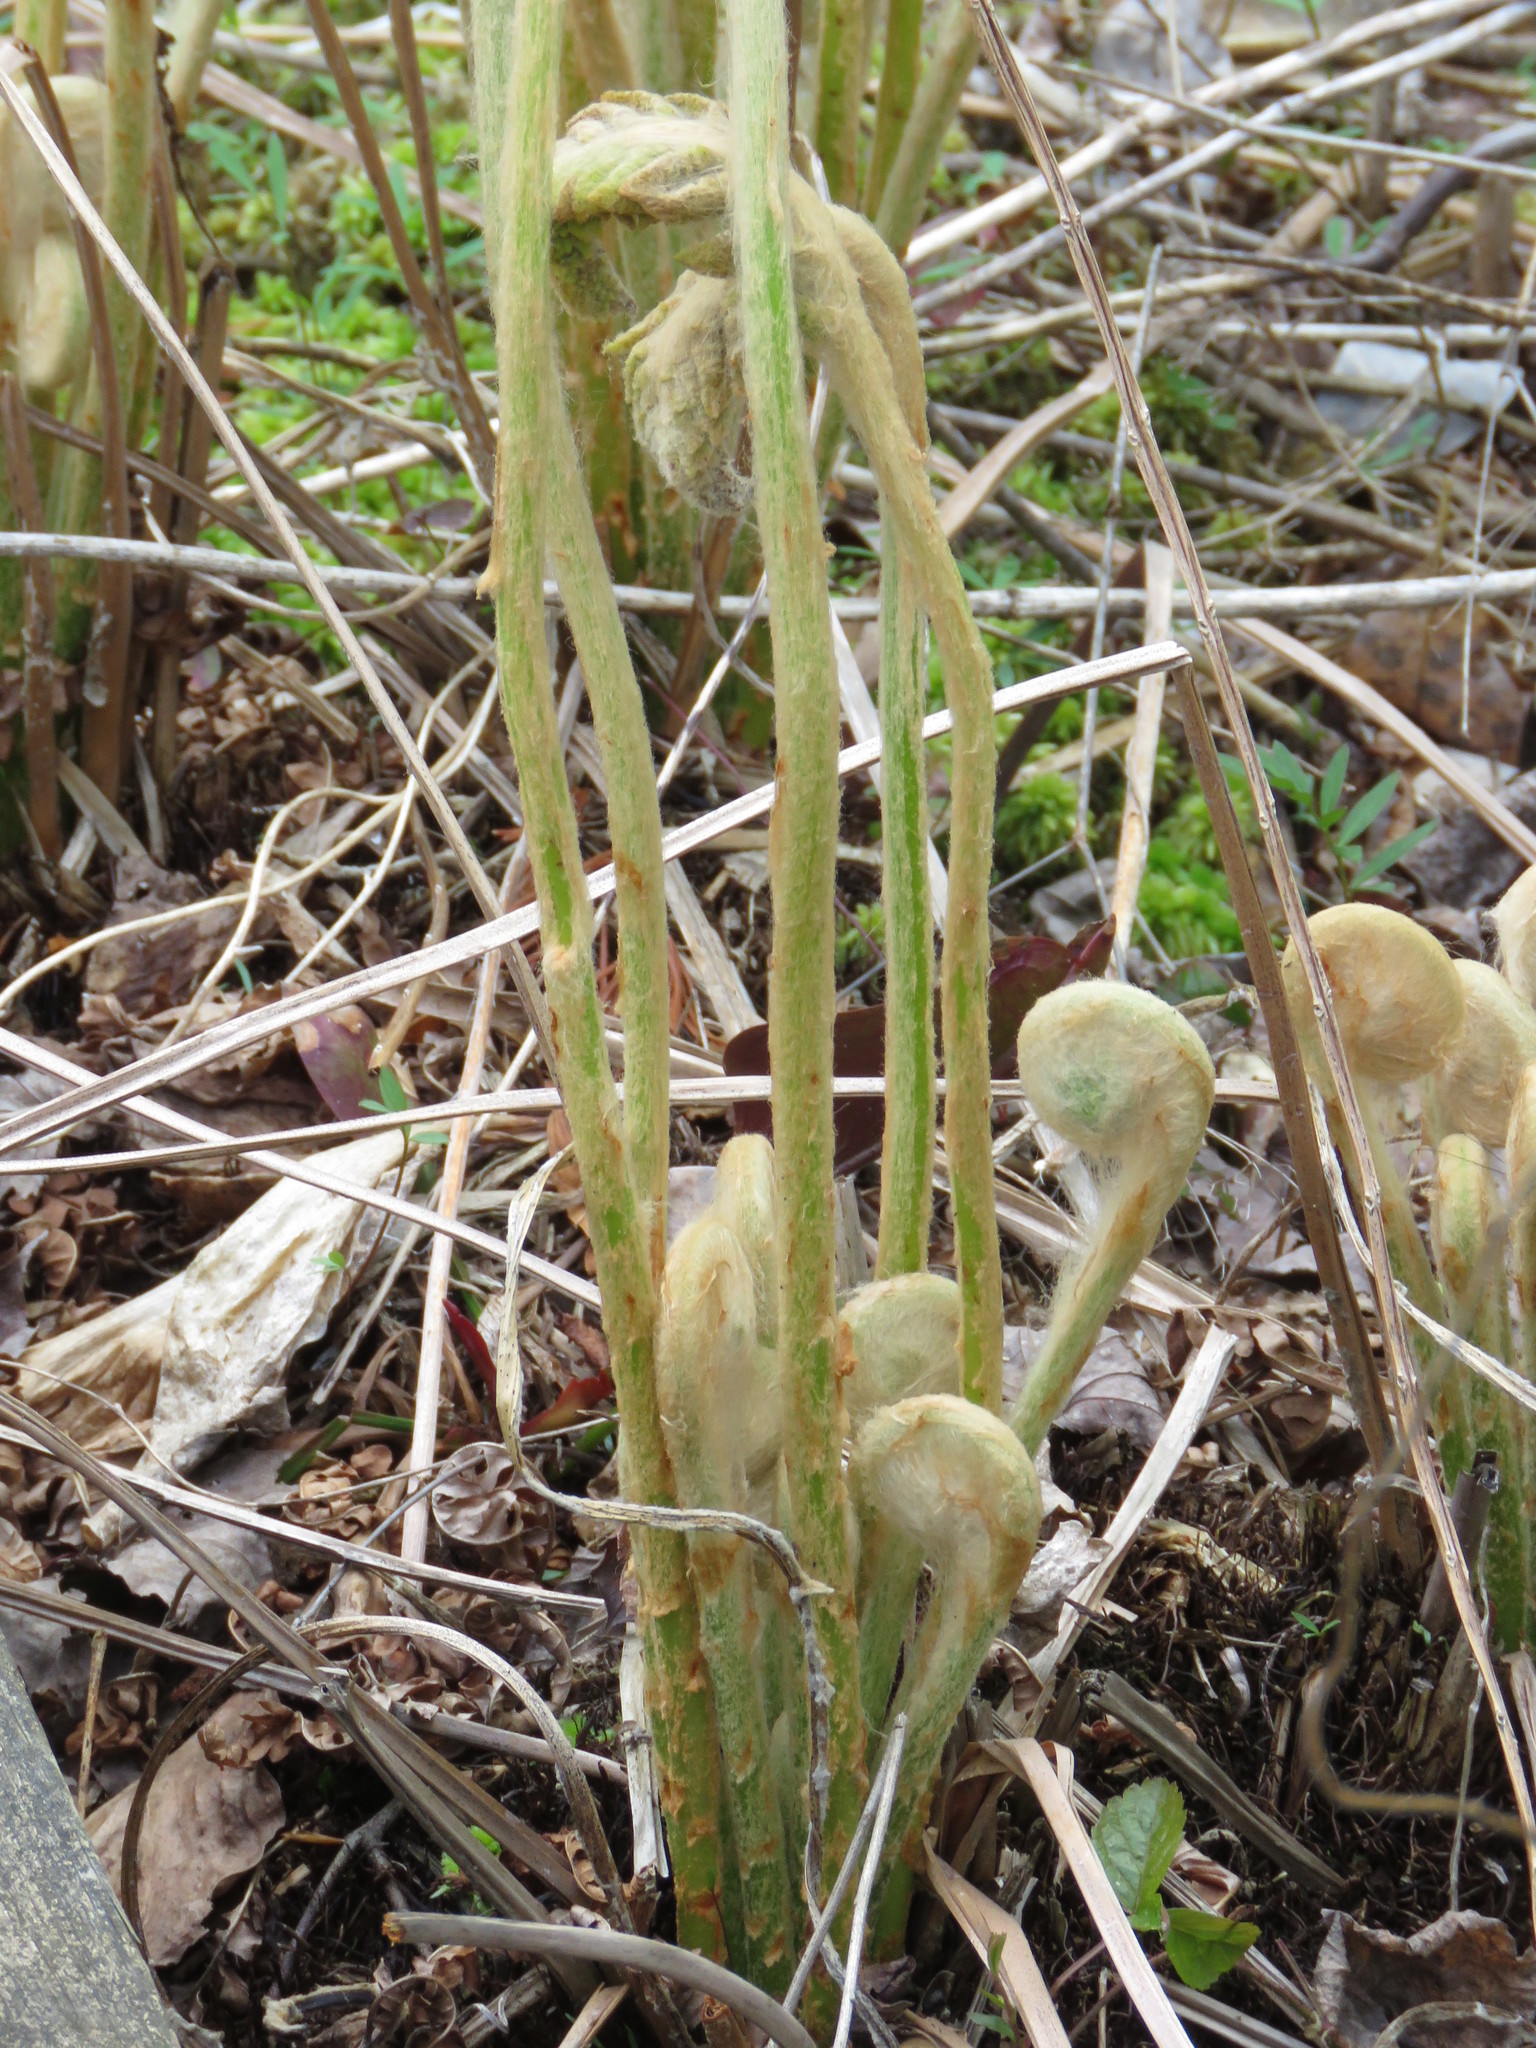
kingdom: Plantae
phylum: Tracheophyta
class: Polypodiopsida
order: Osmundales
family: Osmundaceae
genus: Osmundastrum
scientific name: Osmundastrum cinnamomeum
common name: Cinnamon fern
